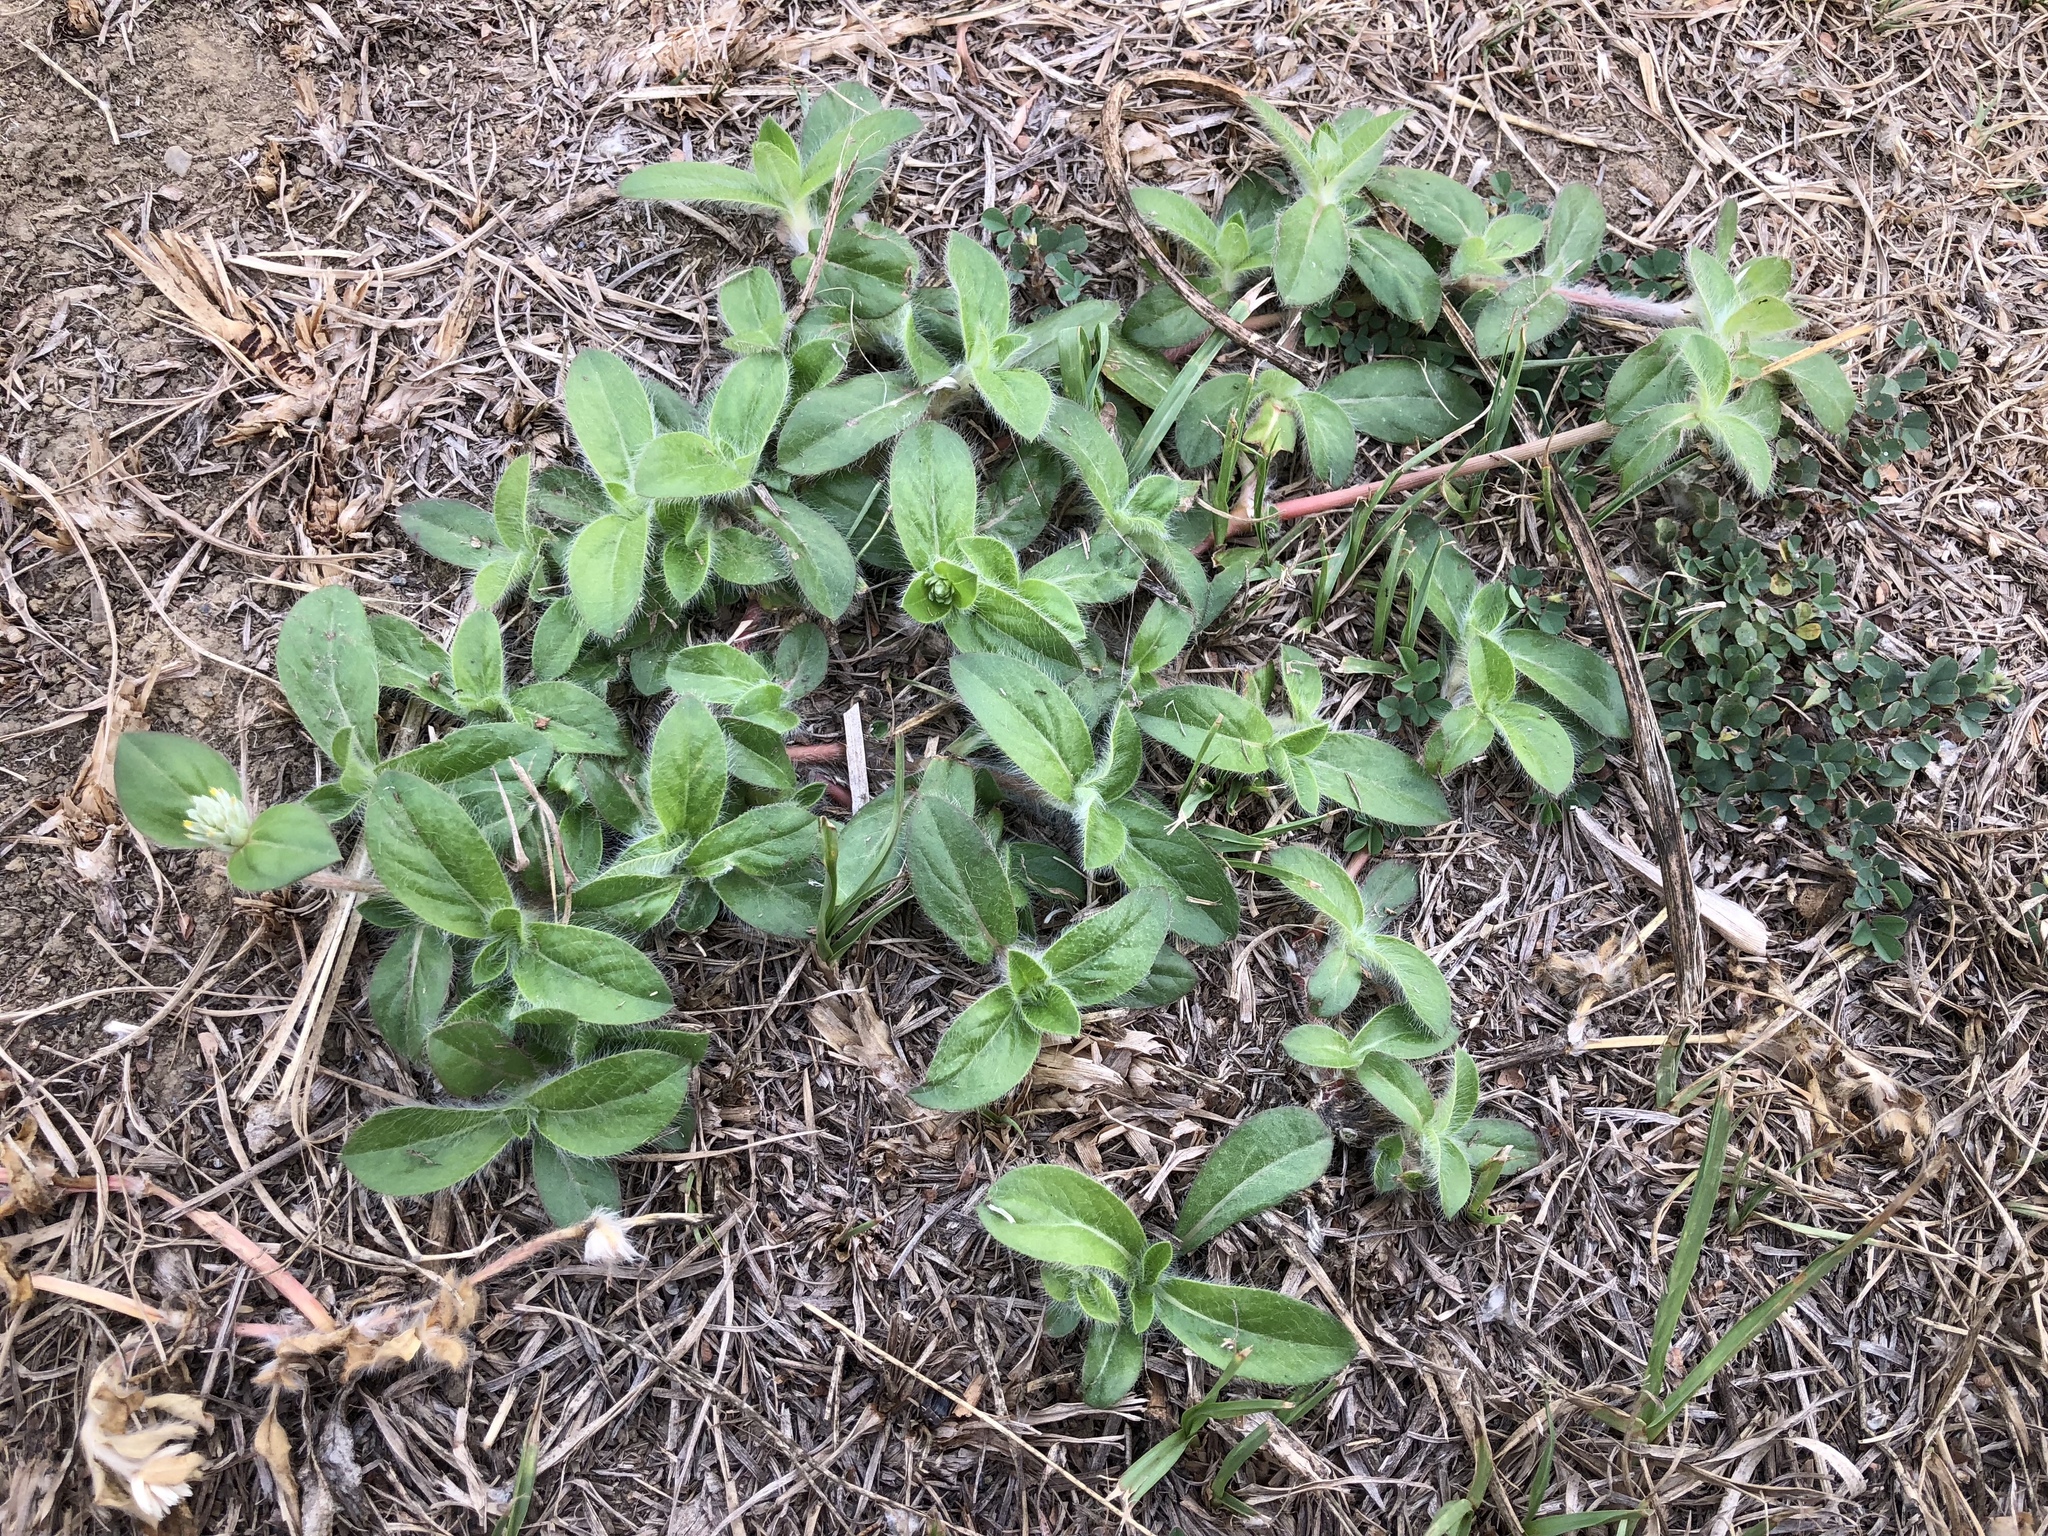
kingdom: Plantae
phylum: Tracheophyta
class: Magnoliopsida
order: Caryophyllales
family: Amaranthaceae
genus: Gomphrena
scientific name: Gomphrena celosioides
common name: Gomphrena-weed
